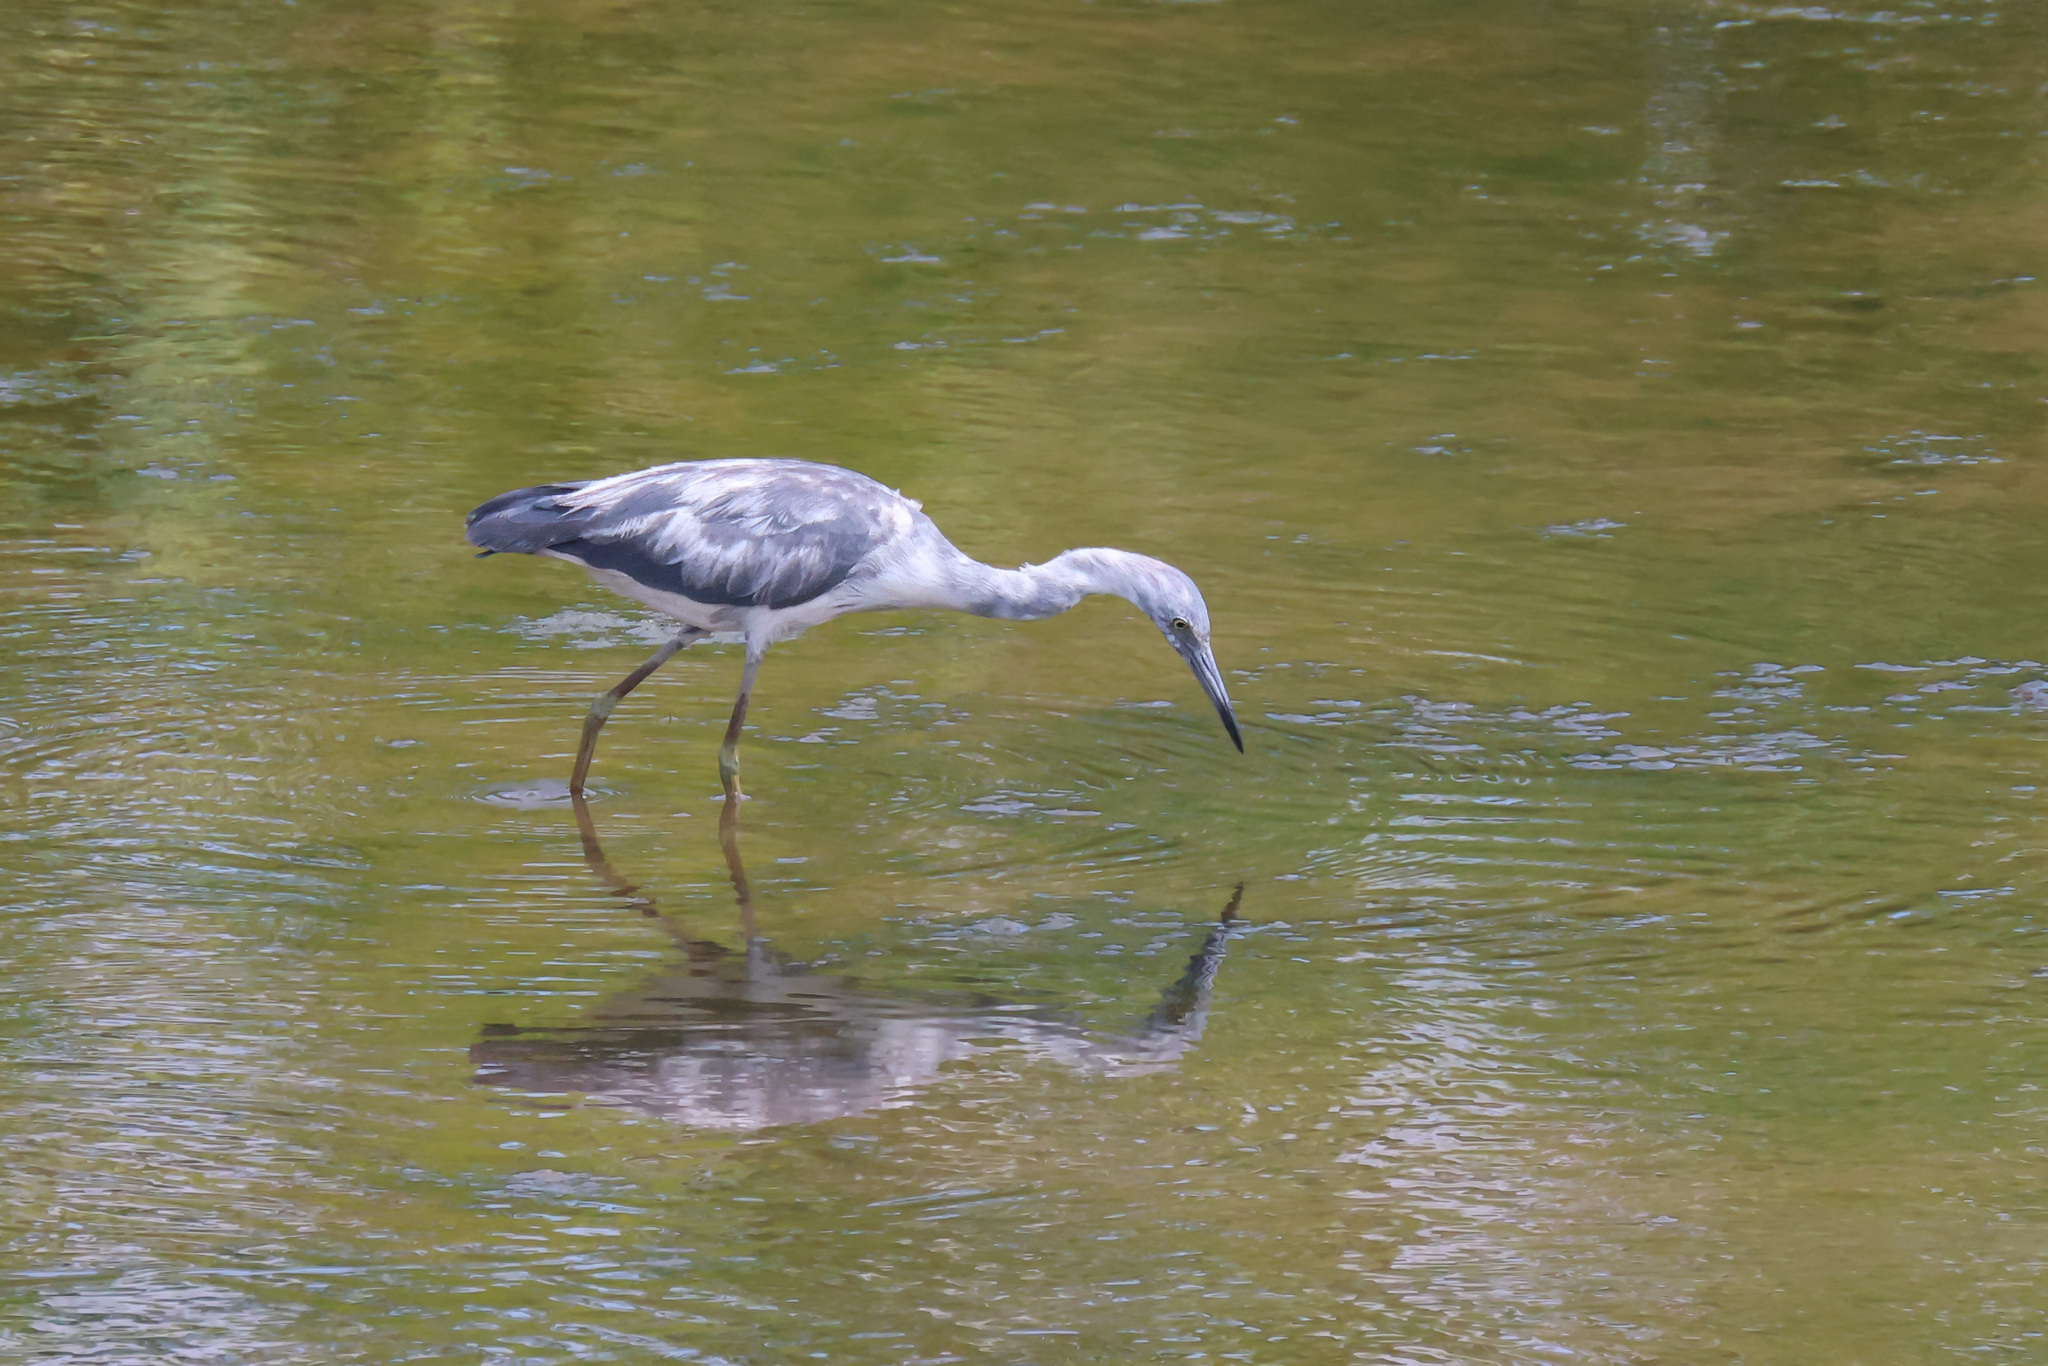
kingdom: Animalia
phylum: Chordata
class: Aves
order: Pelecaniformes
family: Ardeidae
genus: Egretta
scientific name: Egretta caerulea
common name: Little blue heron
